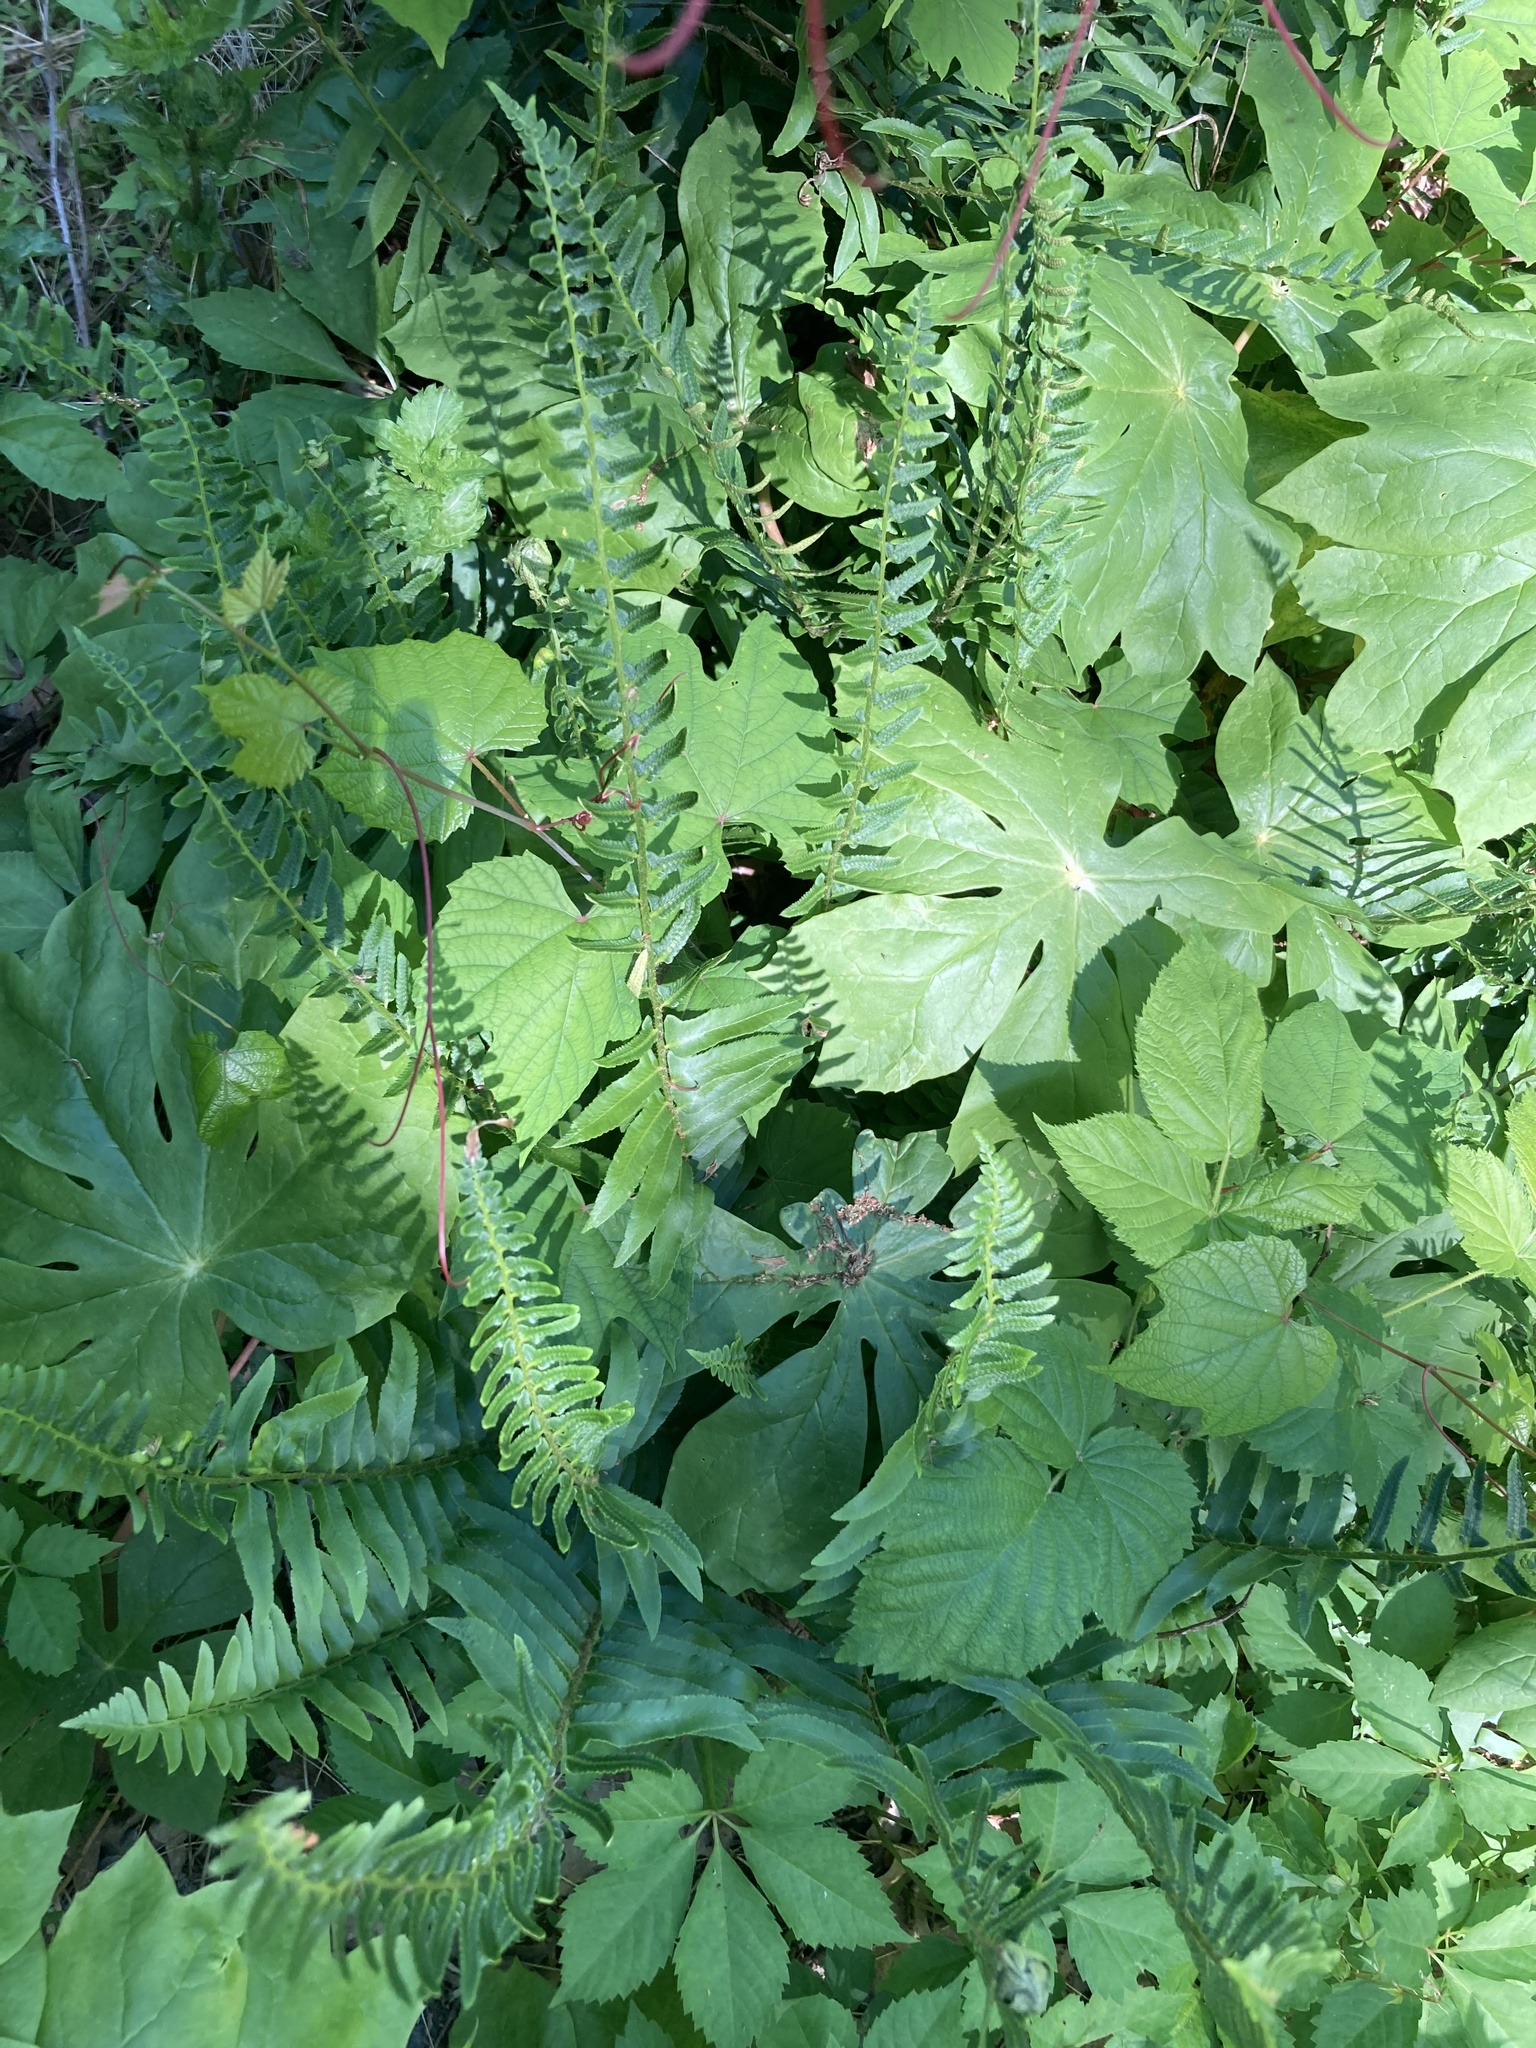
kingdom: Plantae
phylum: Tracheophyta
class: Polypodiopsida
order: Polypodiales
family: Dryopteridaceae
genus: Polystichum
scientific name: Polystichum acrostichoides
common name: Christmas fern
